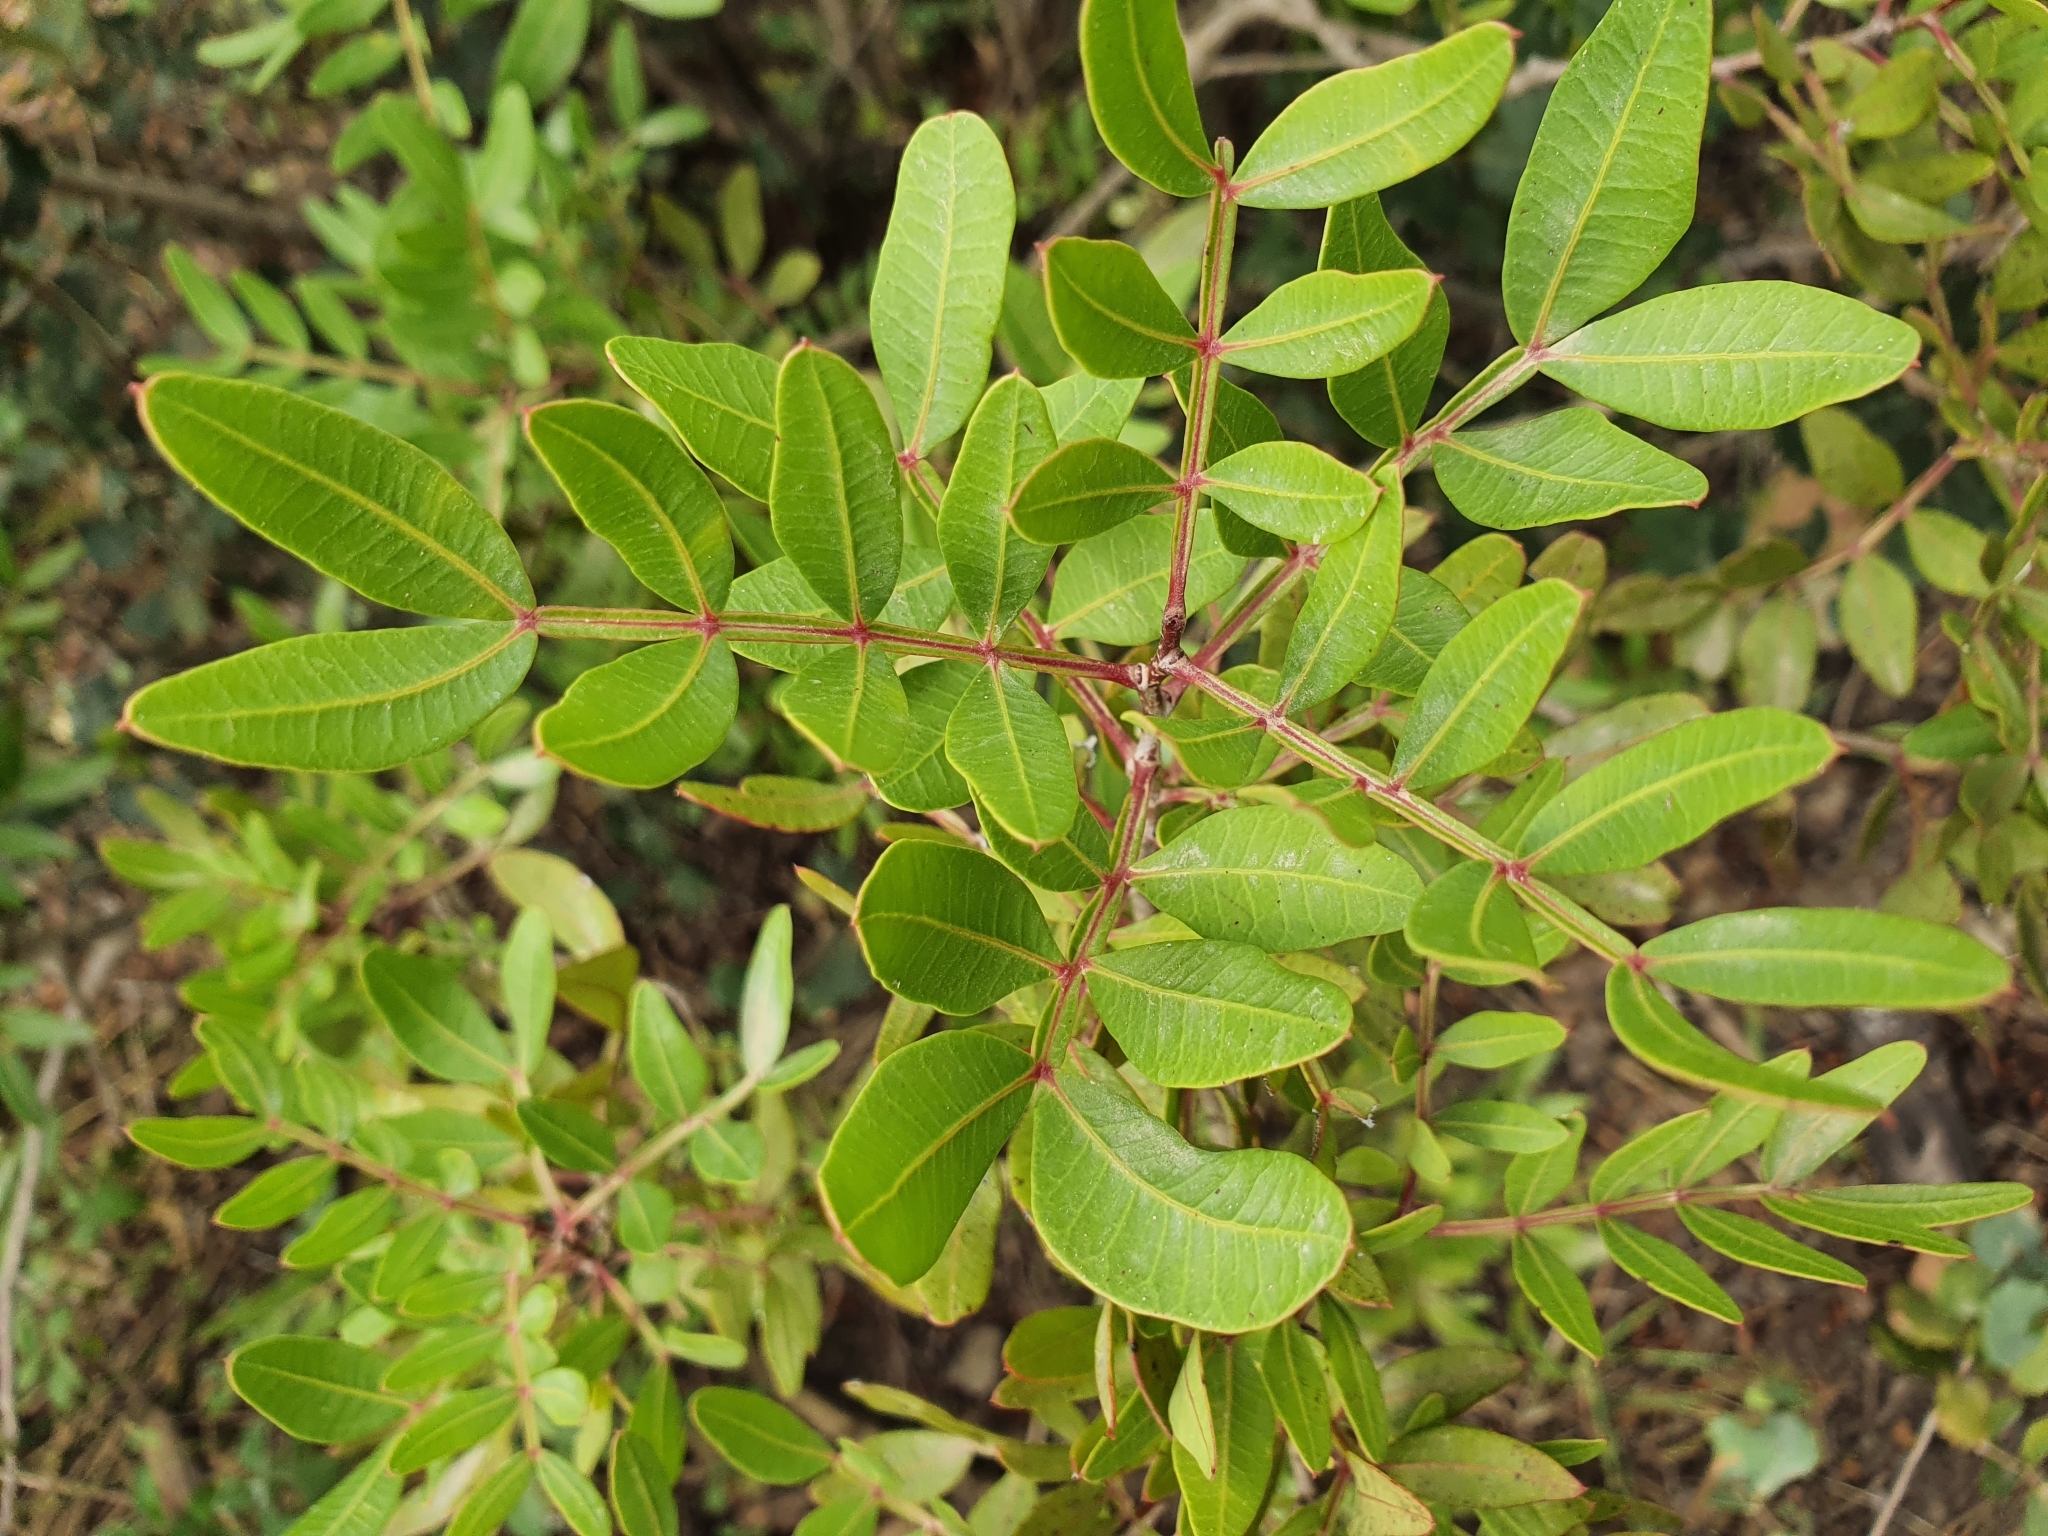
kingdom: Plantae
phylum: Tracheophyta
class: Magnoliopsida
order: Sapindales
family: Anacardiaceae
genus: Pistacia
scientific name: Pistacia lentiscus
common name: Lentisk
